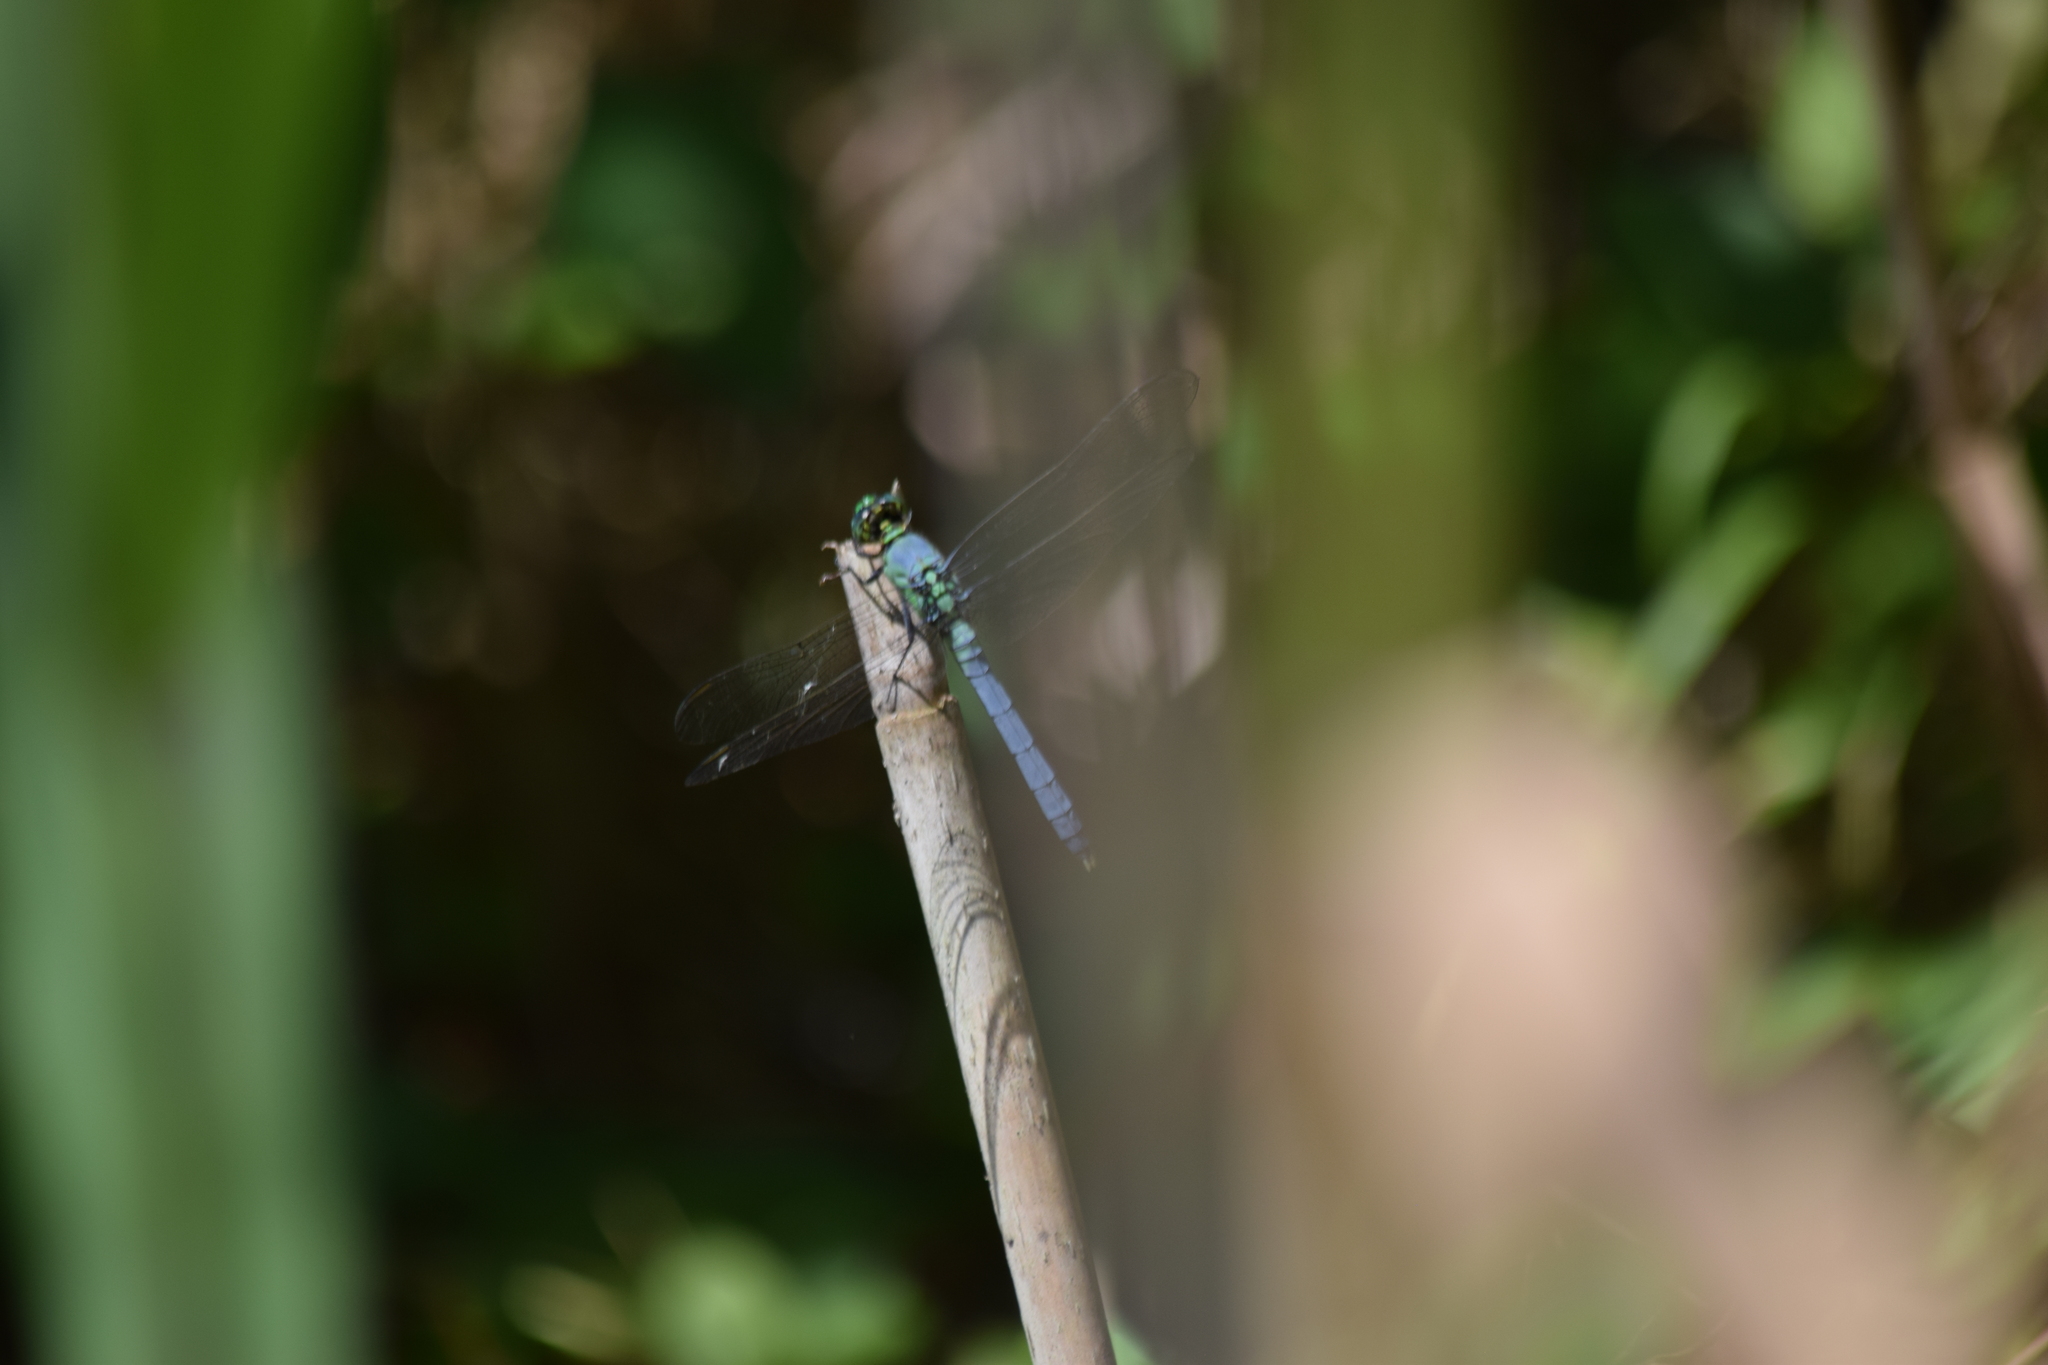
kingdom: Animalia
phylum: Arthropoda
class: Insecta
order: Odonata
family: Libellulidae
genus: Erythemis
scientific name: Erythemis simplicicollis
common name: Eastern pondhawk
